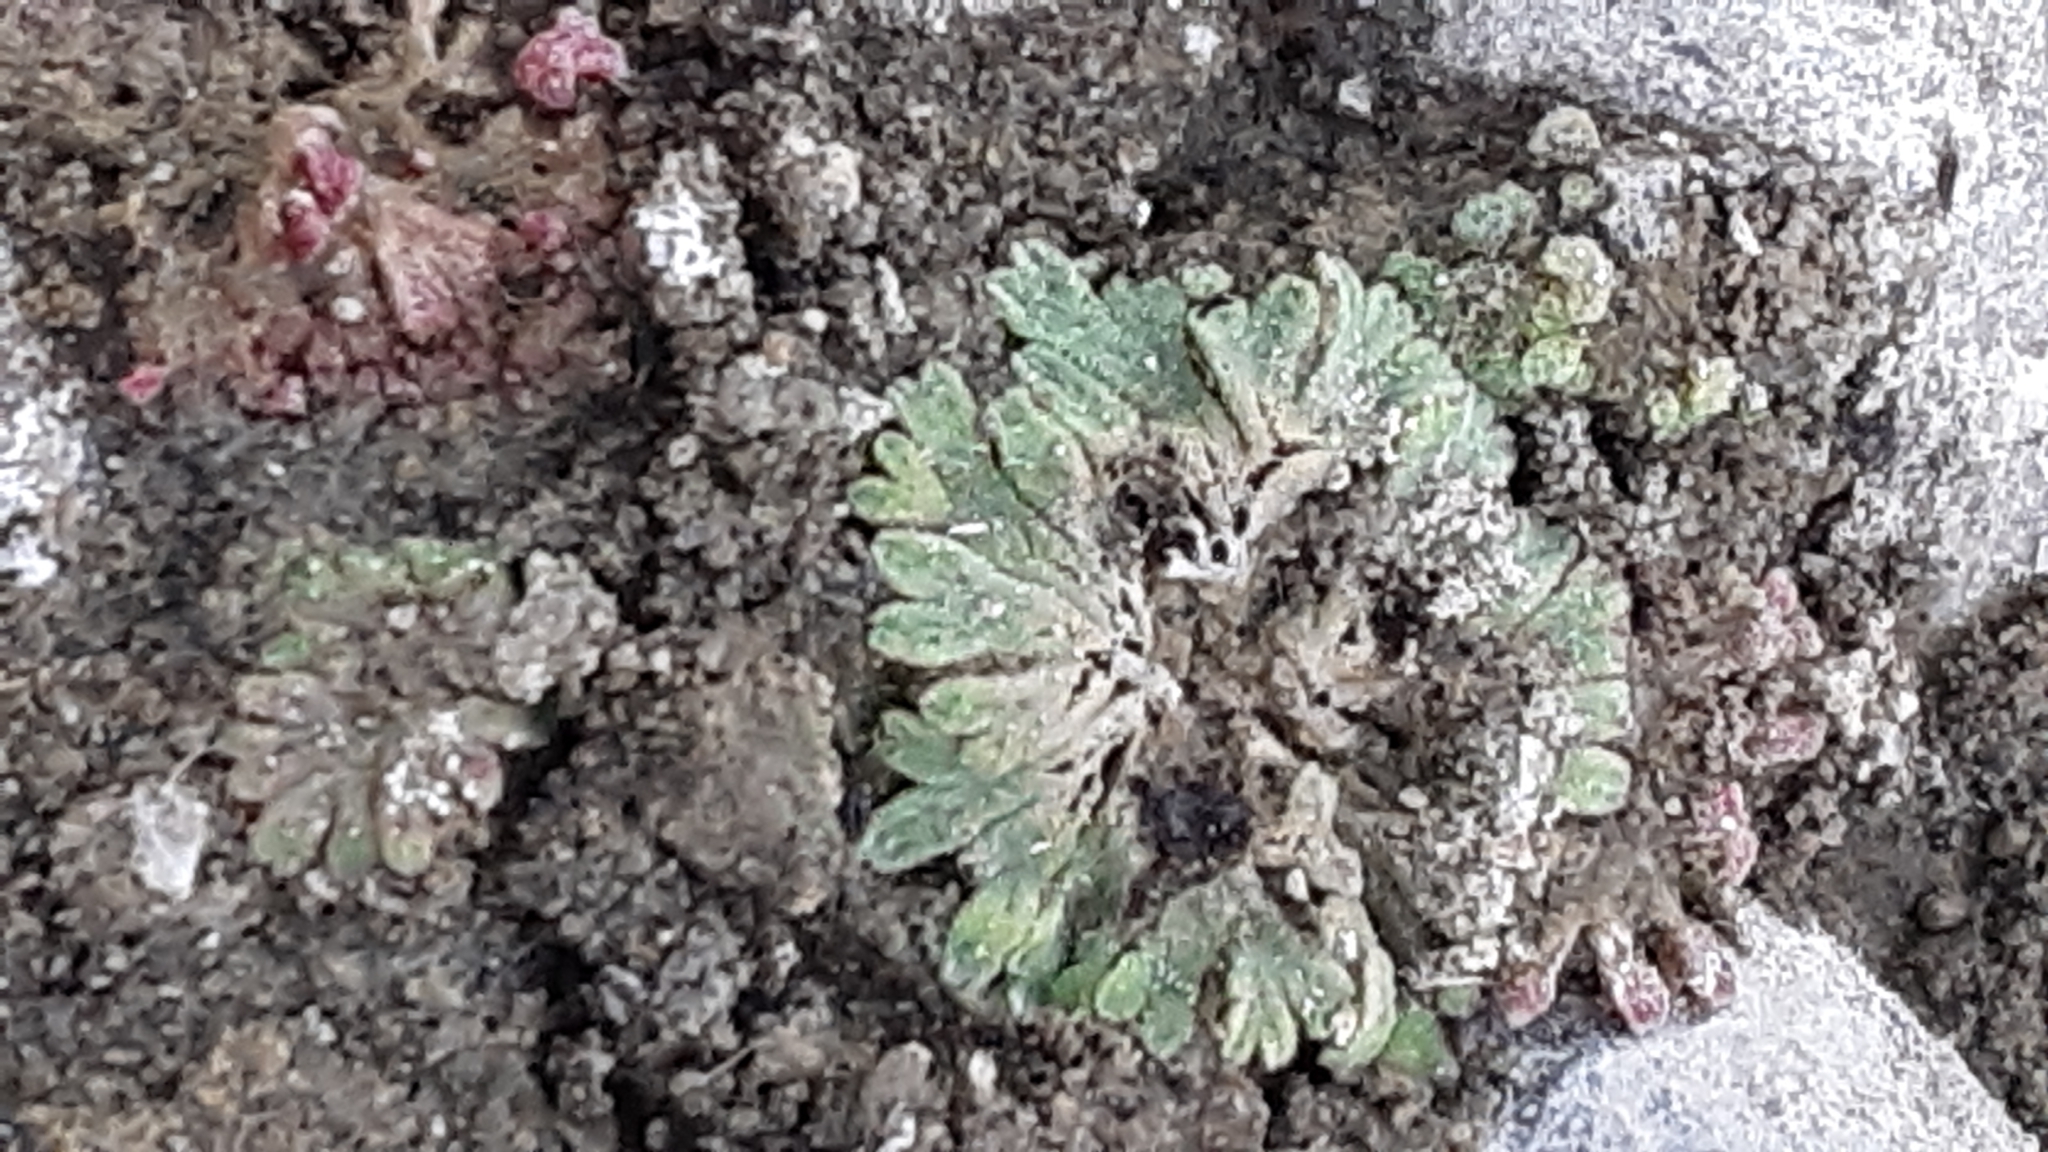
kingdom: Plantae
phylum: Marchantiophyta
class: Marchantiopsida
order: Marchantiales
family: Ricciaceae
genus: Riccia
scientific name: Riccia frostii
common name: Frost s crystalwort
